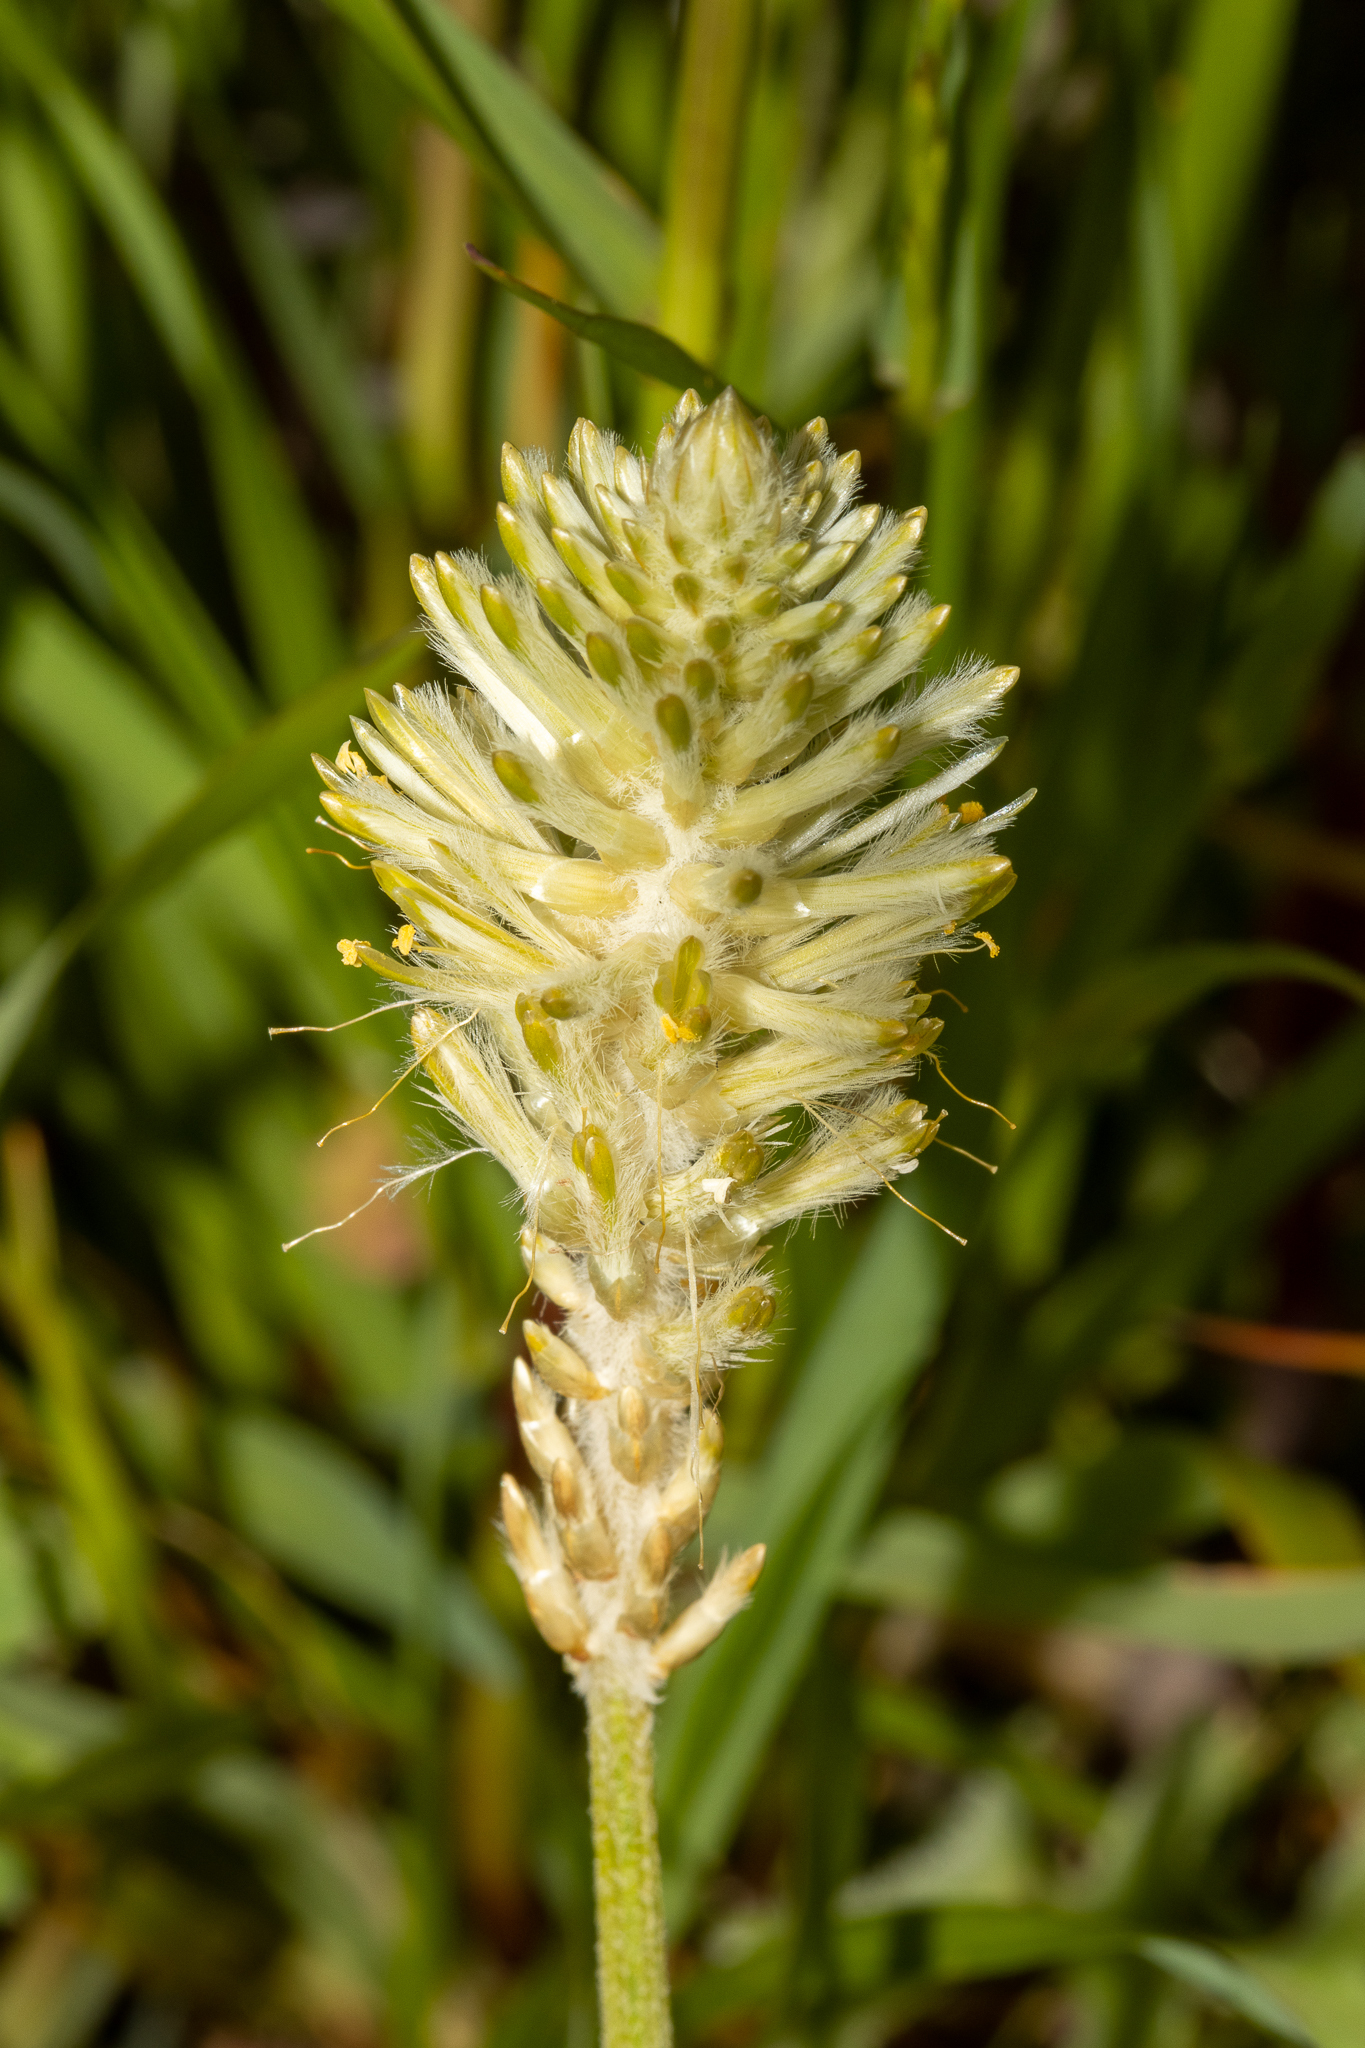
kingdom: Plantae
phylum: Tracheophyta
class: Magnoliopsida
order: Caryophyllales
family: Amaranthaceae
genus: Ptilotus
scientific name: Ptilotus polystachyus
